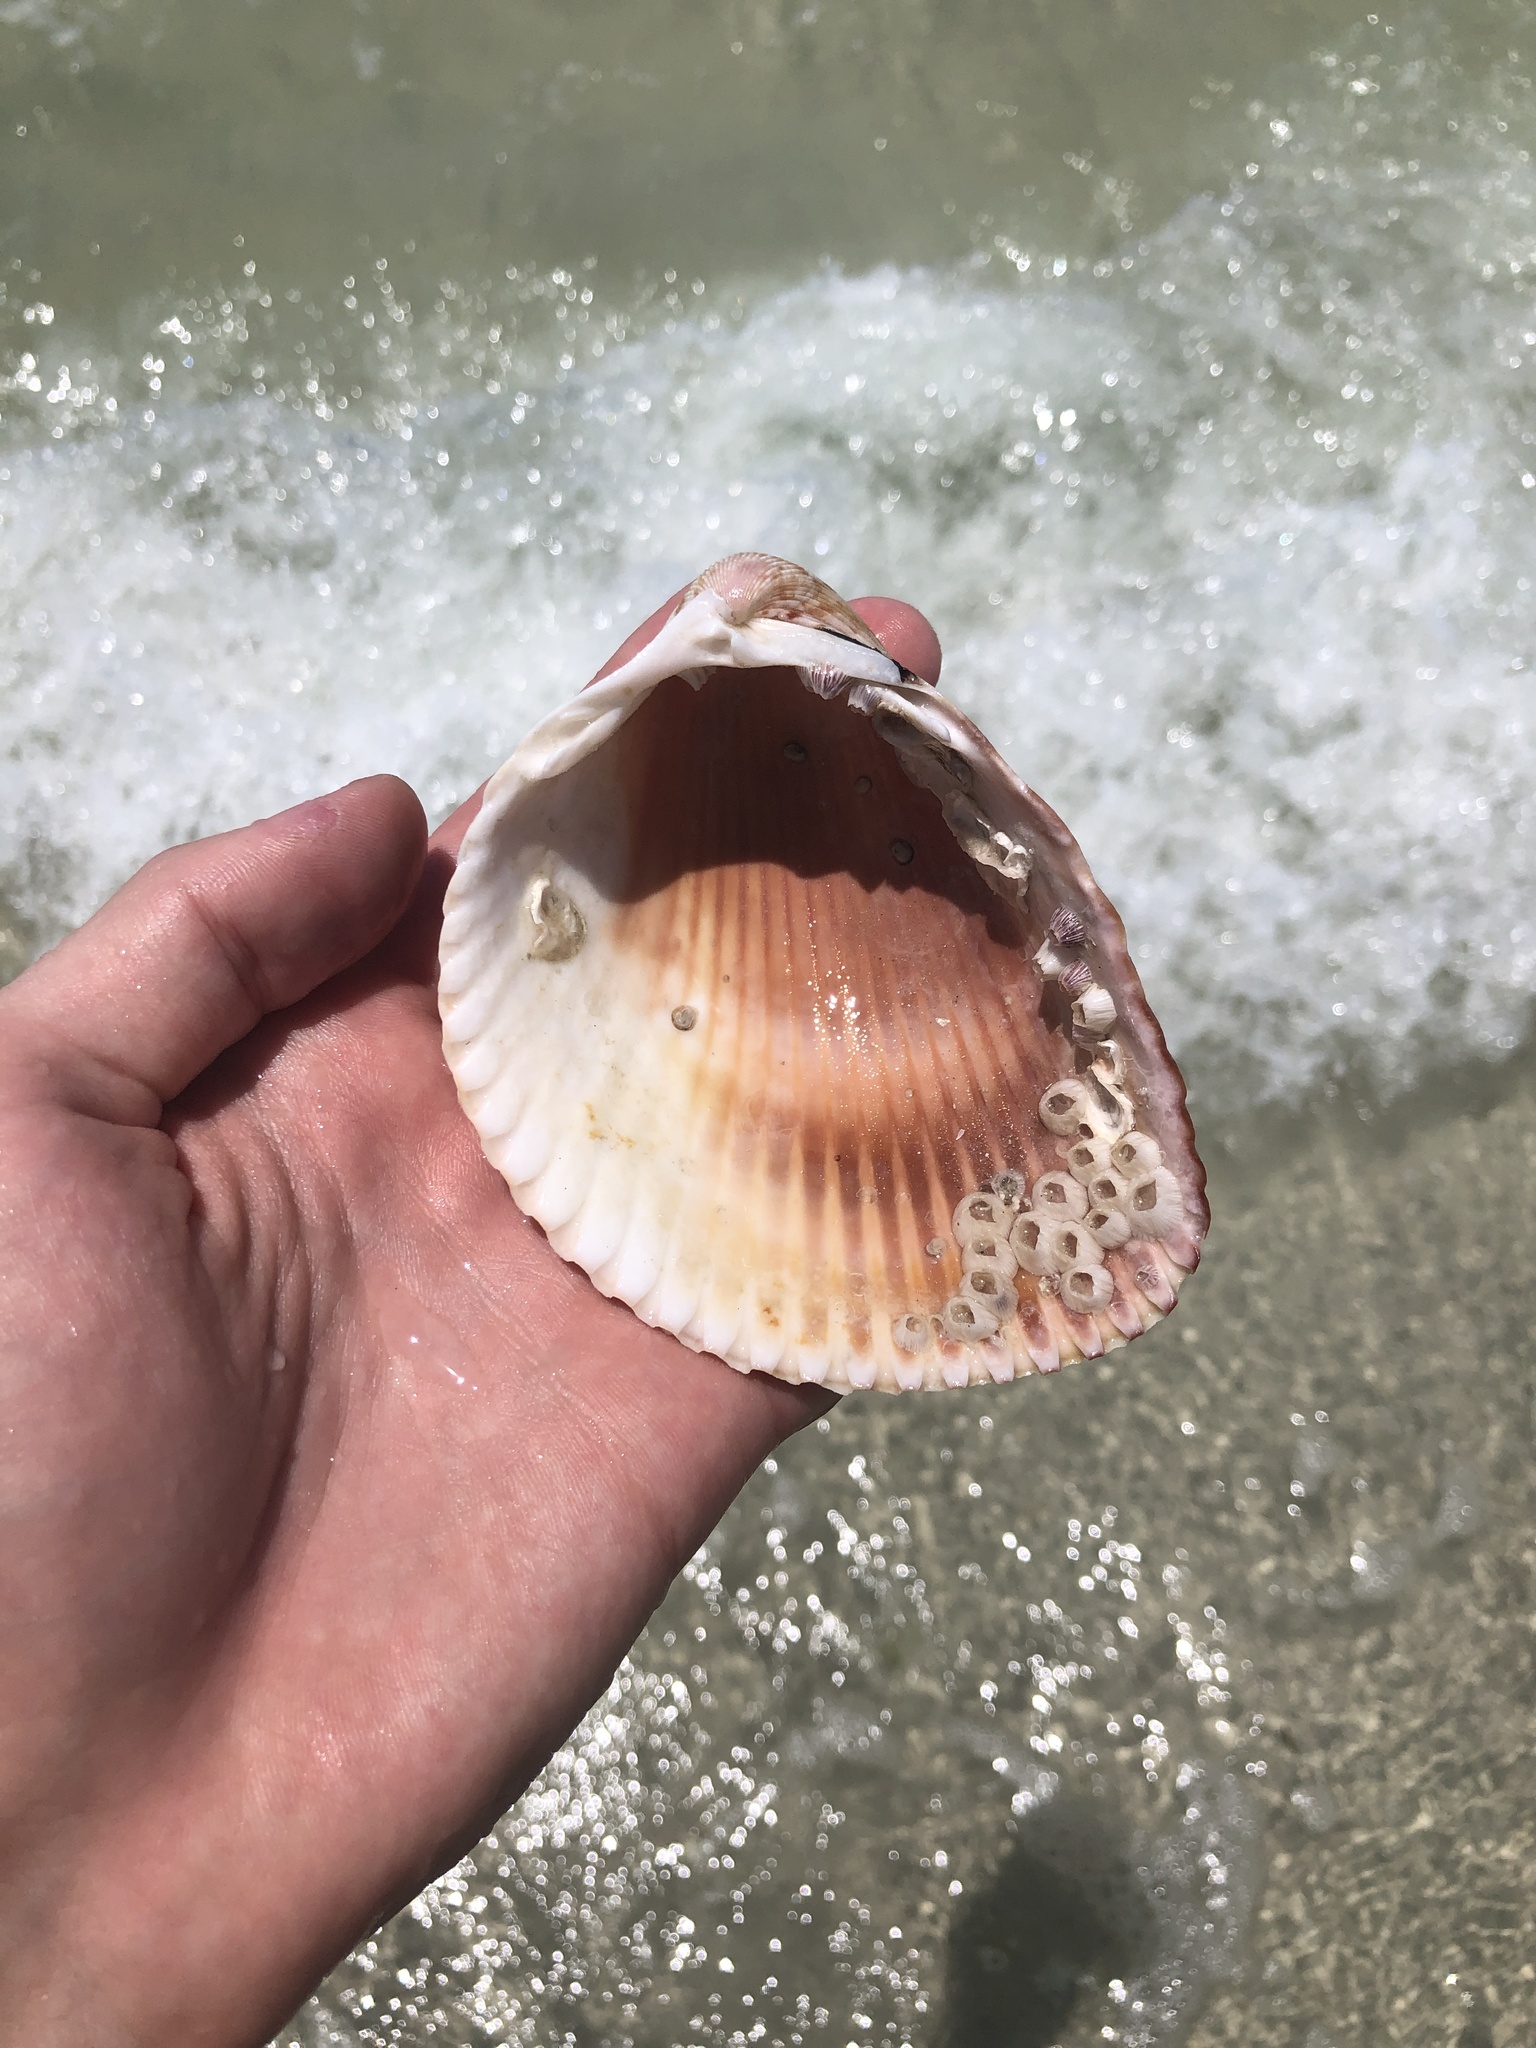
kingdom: Animalia
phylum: Mollusca
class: Bivalvia
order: Cardiida
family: Cardiidae
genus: Dinocardium
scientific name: Dinocardium robustum
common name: Atlantic giant cockle
